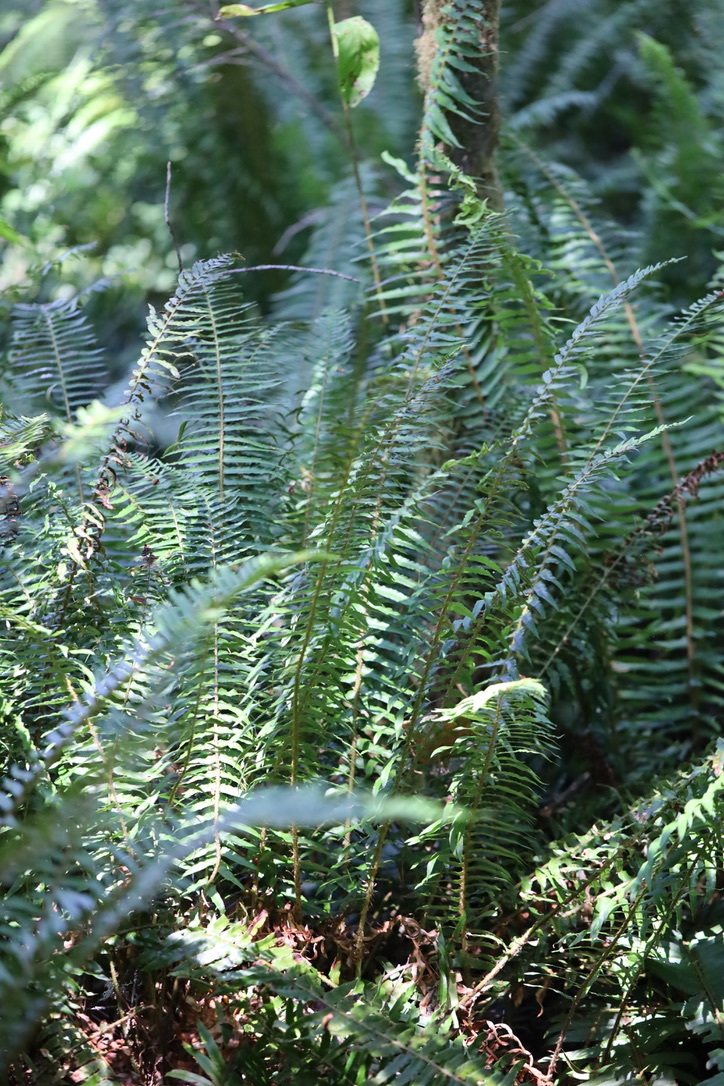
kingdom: Plantae
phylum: Tracheophyta
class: Polypodiopsida
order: Polypodiales
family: Dryopteridaceae
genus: Polystichum
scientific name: Polystichum munitum
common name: Western sword-fern
